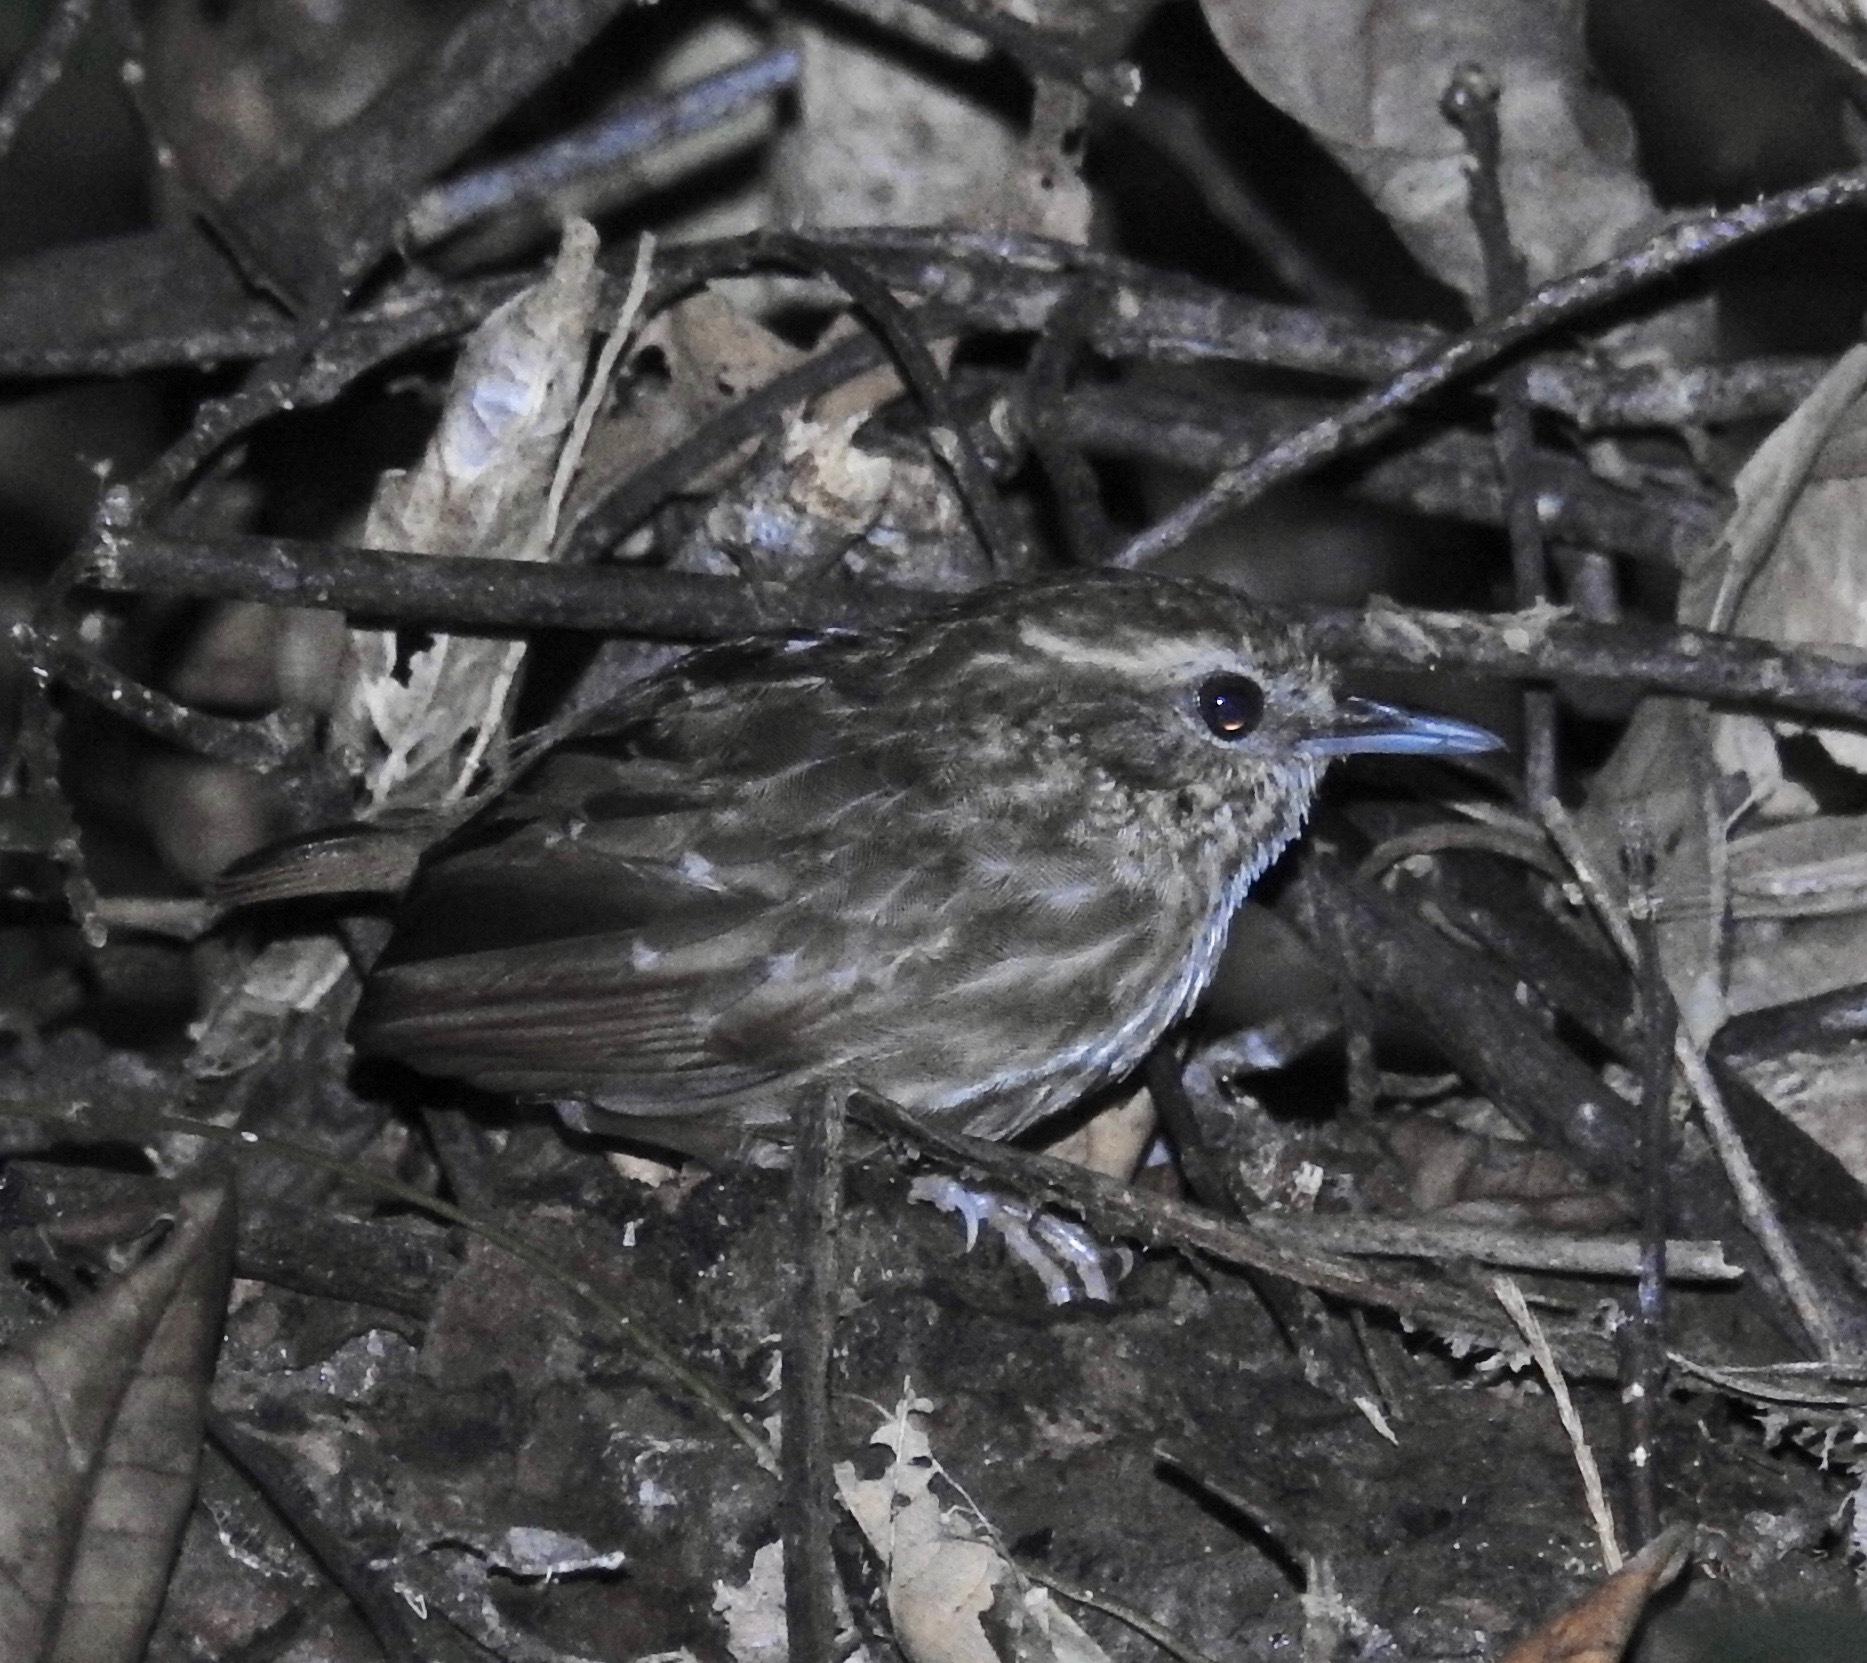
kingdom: Animalia
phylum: Chordata
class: Aves
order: Passeriformes
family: Pellorneidae
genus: Napothera
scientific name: Napothera epilepidota
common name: Eyebrowed wren-babbler
